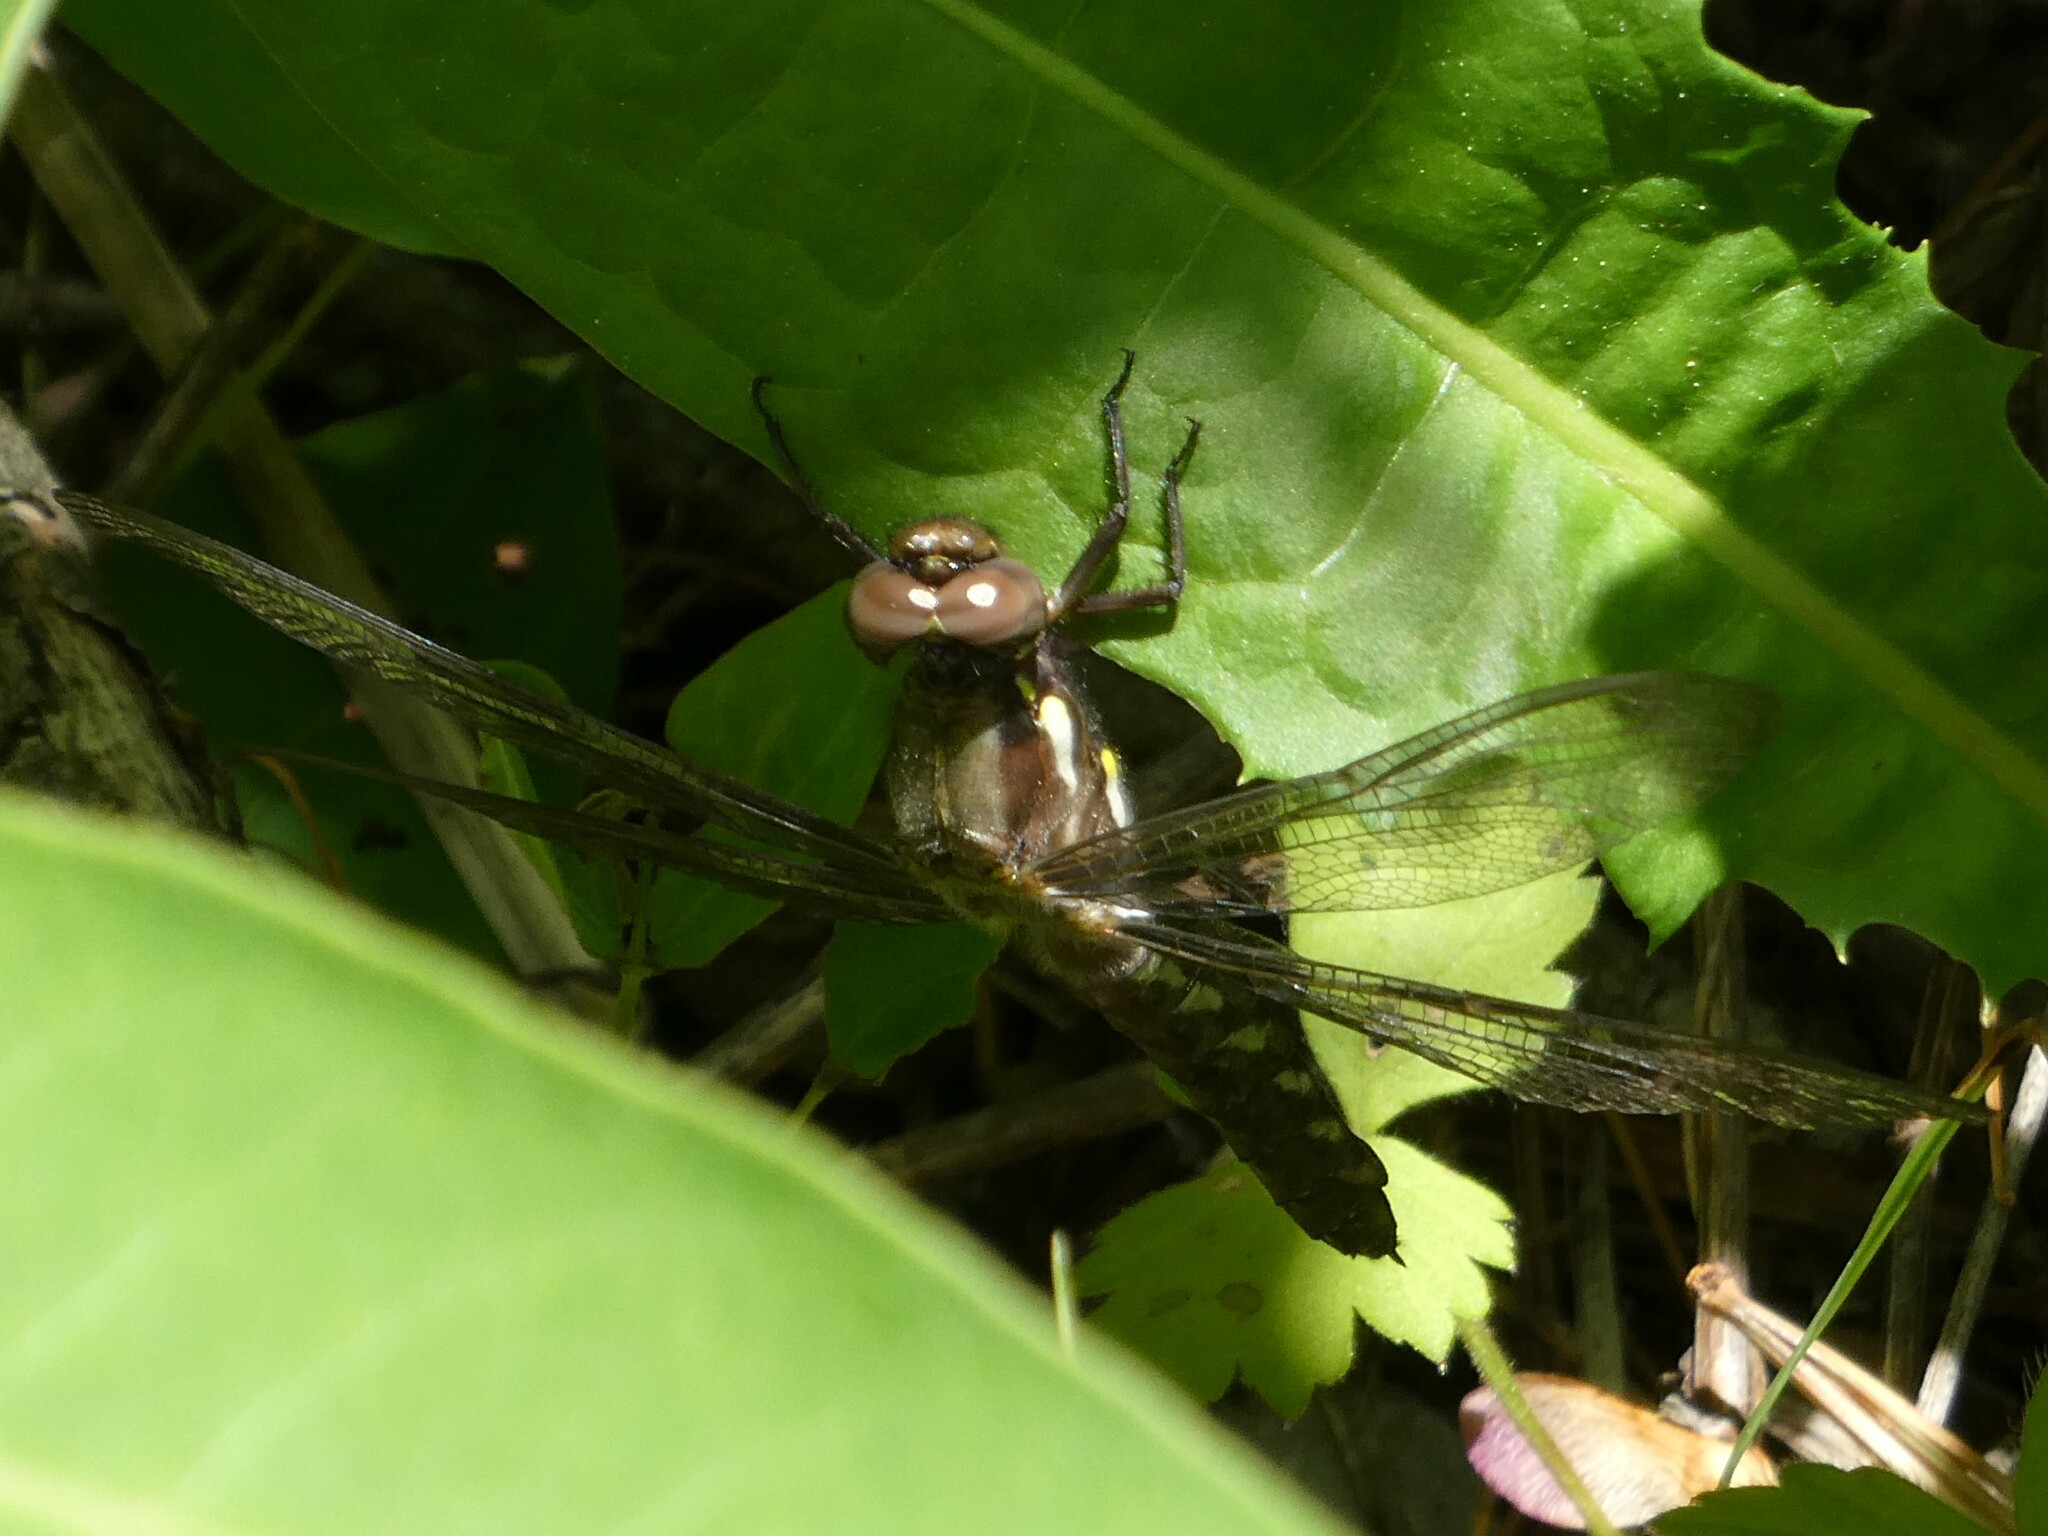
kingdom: Animalia
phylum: Arthropoda
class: Insecta
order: Odonata
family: Libellulidae
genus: Plathemis
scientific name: Plathemis lydia
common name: Common whitetail
